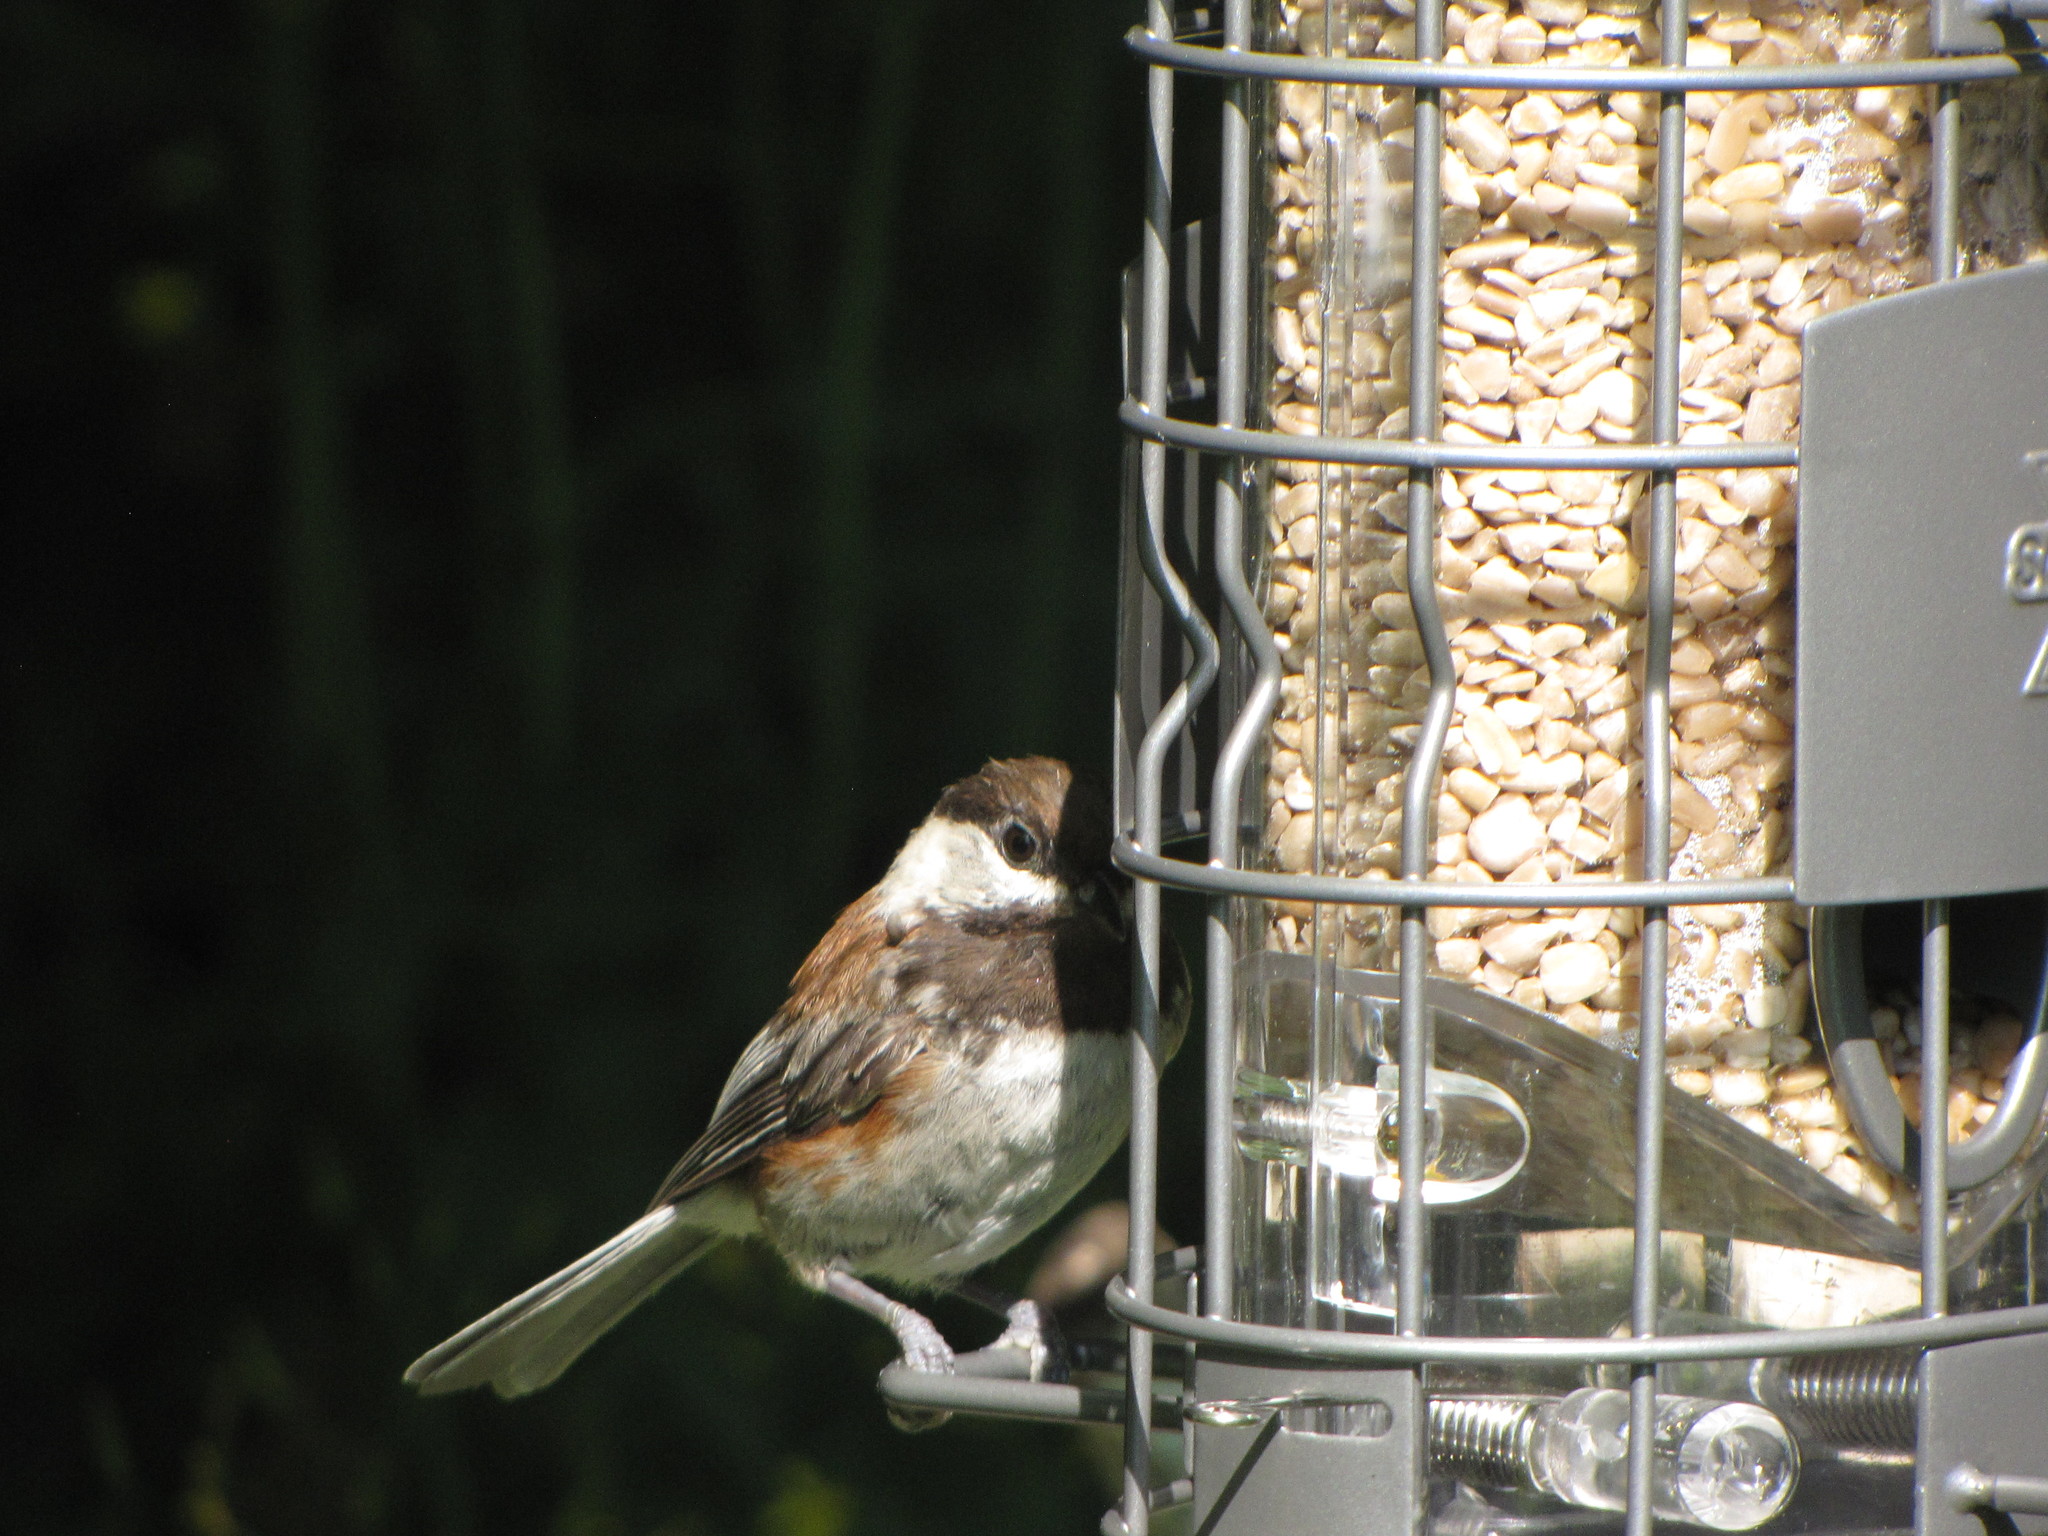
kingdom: Animalia
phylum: Chordata
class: Aves
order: Passeriformes
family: Paridae
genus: Poecile
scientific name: Poecile rufescens
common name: Chestnut-backed chickadee
